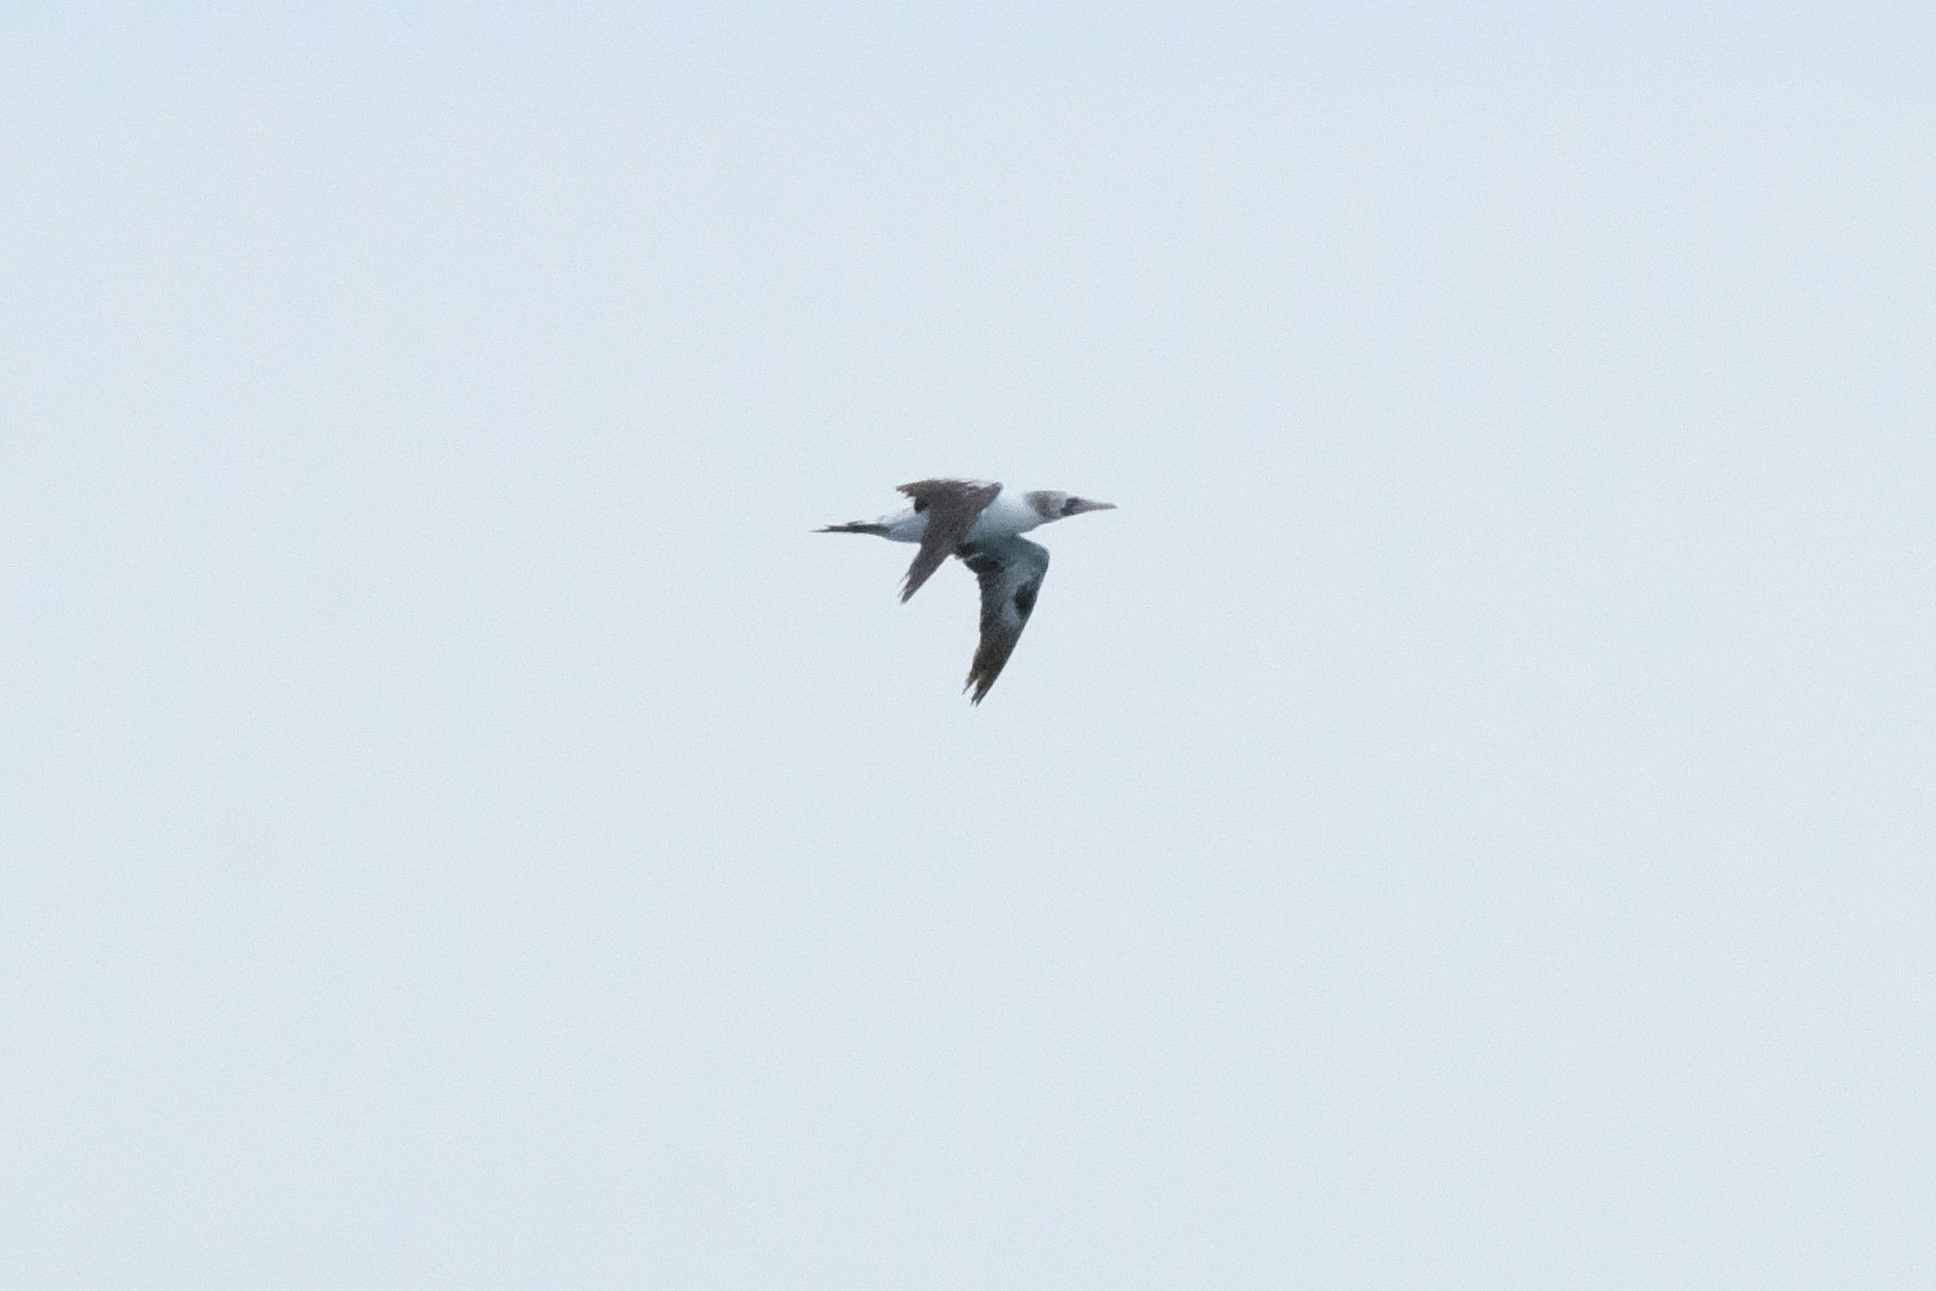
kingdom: Animalia
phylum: Chordata
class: Aves
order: Suliformes
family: Sulidae
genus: Sula
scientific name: Sula granti
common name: Nazca booby
